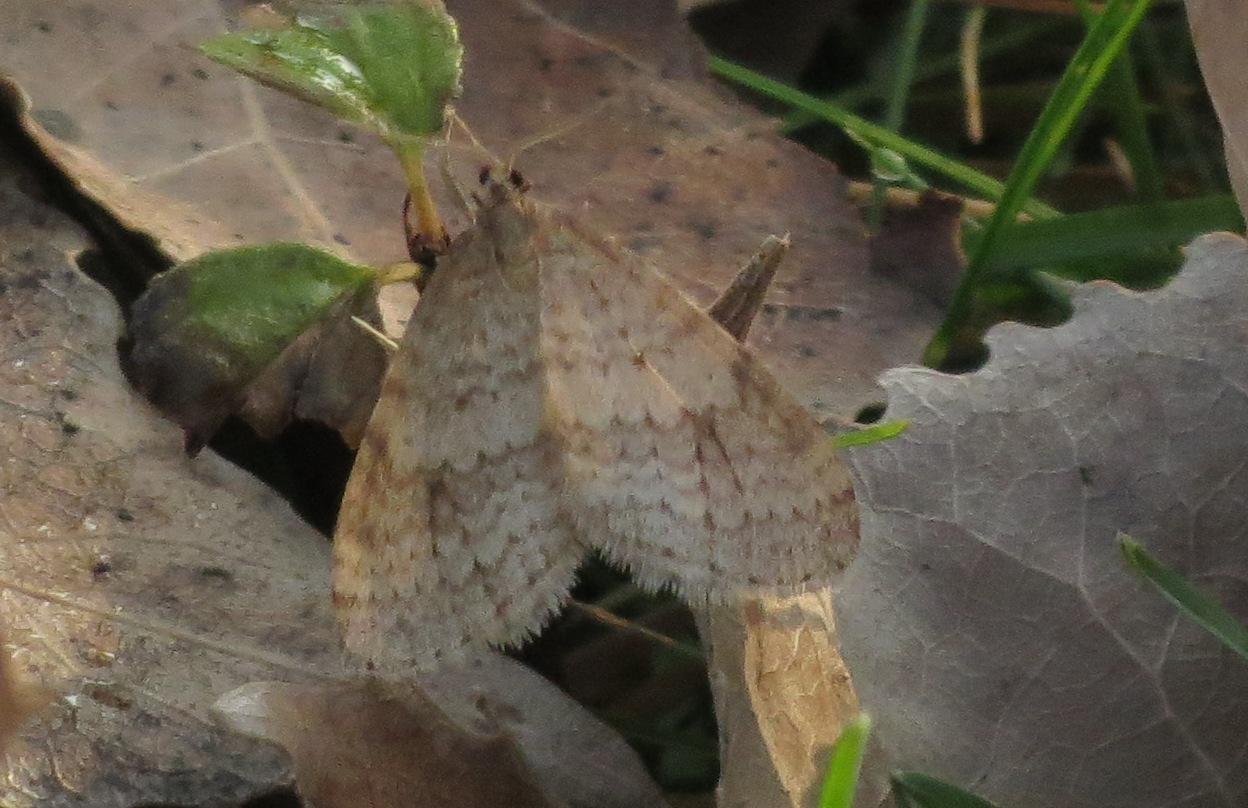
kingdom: Animalia
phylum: Arthropoda
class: Insecta
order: Lepidoptera
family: Geometridae
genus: Operophtera
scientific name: Operophtera bruceata
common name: Bruce spanworm
